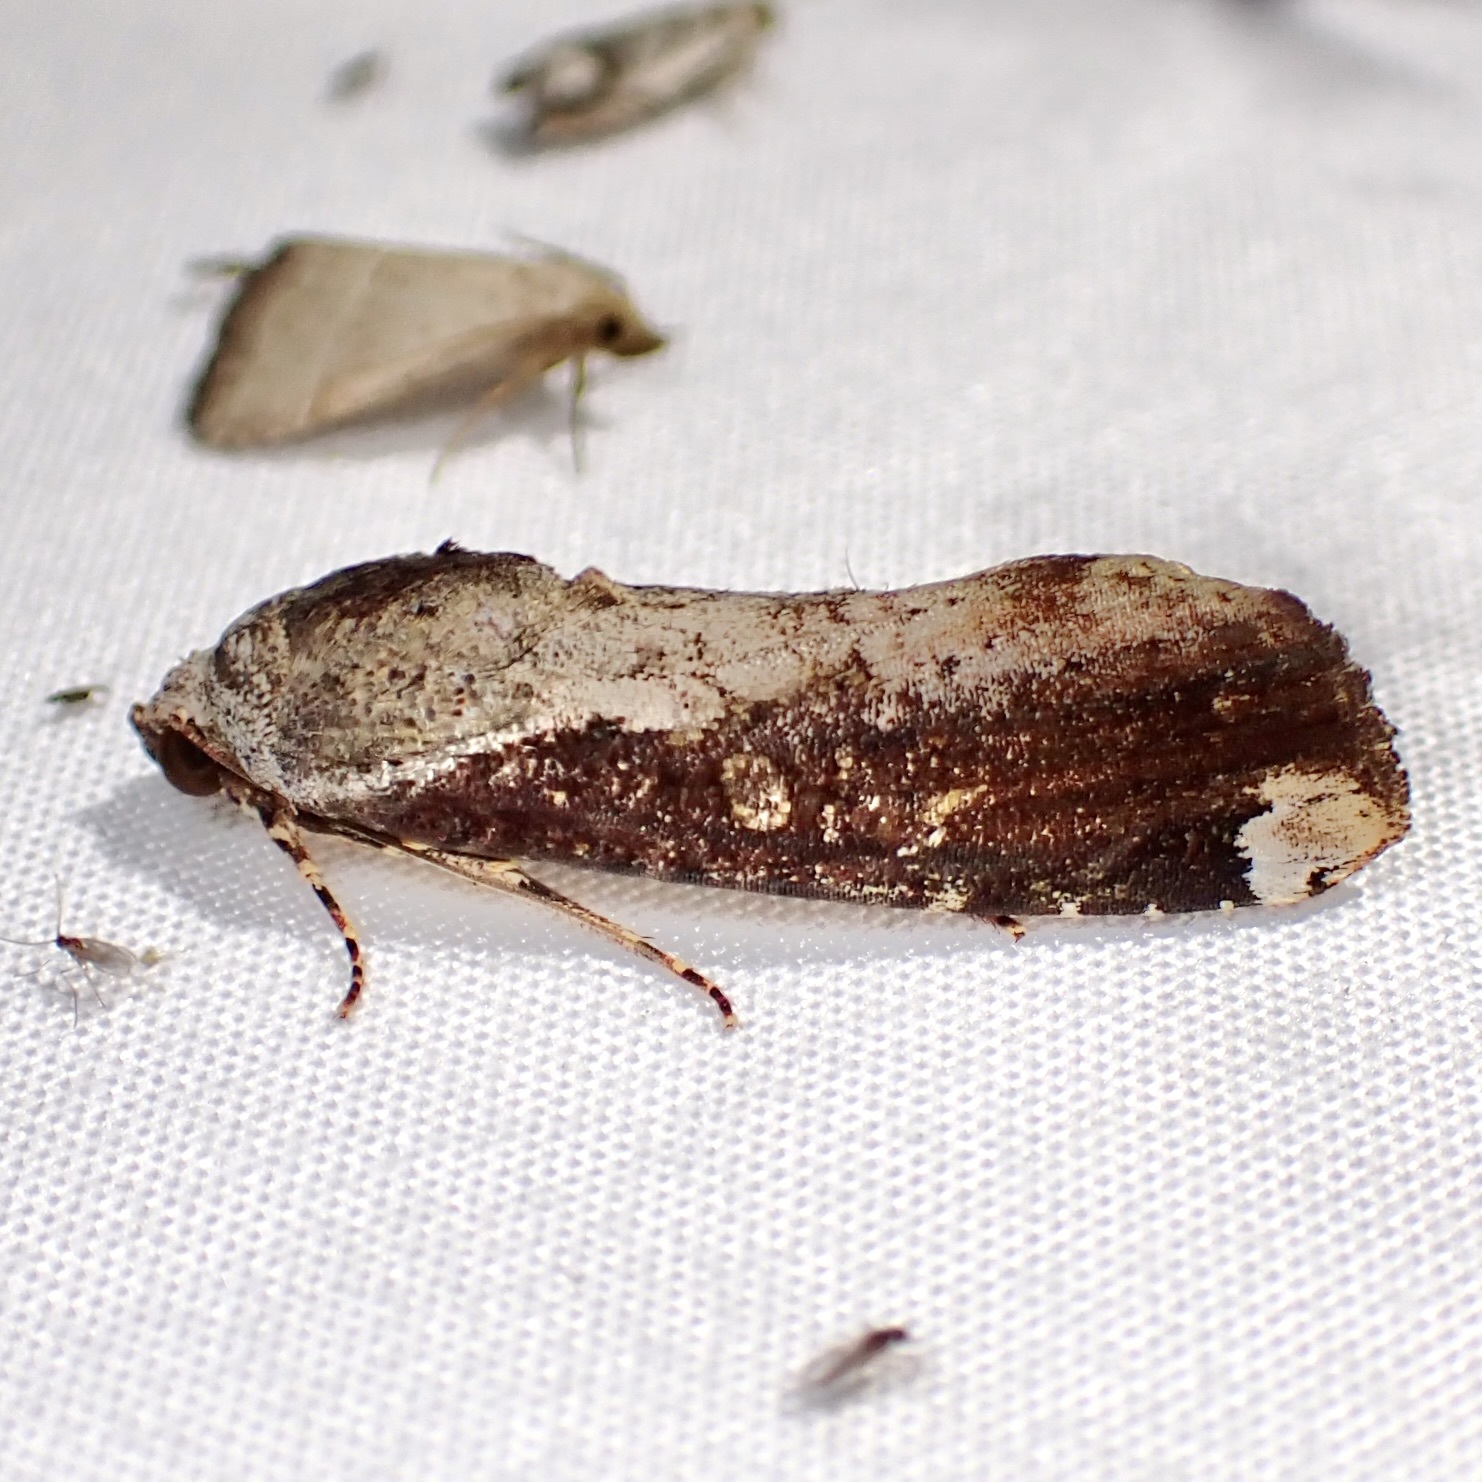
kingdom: Animalia
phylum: Arthropoda
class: Insecta
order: Lepidoptera
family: Noctuidae
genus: Magusa
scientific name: Magusa divaricata
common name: Orb narrow-winged moth
